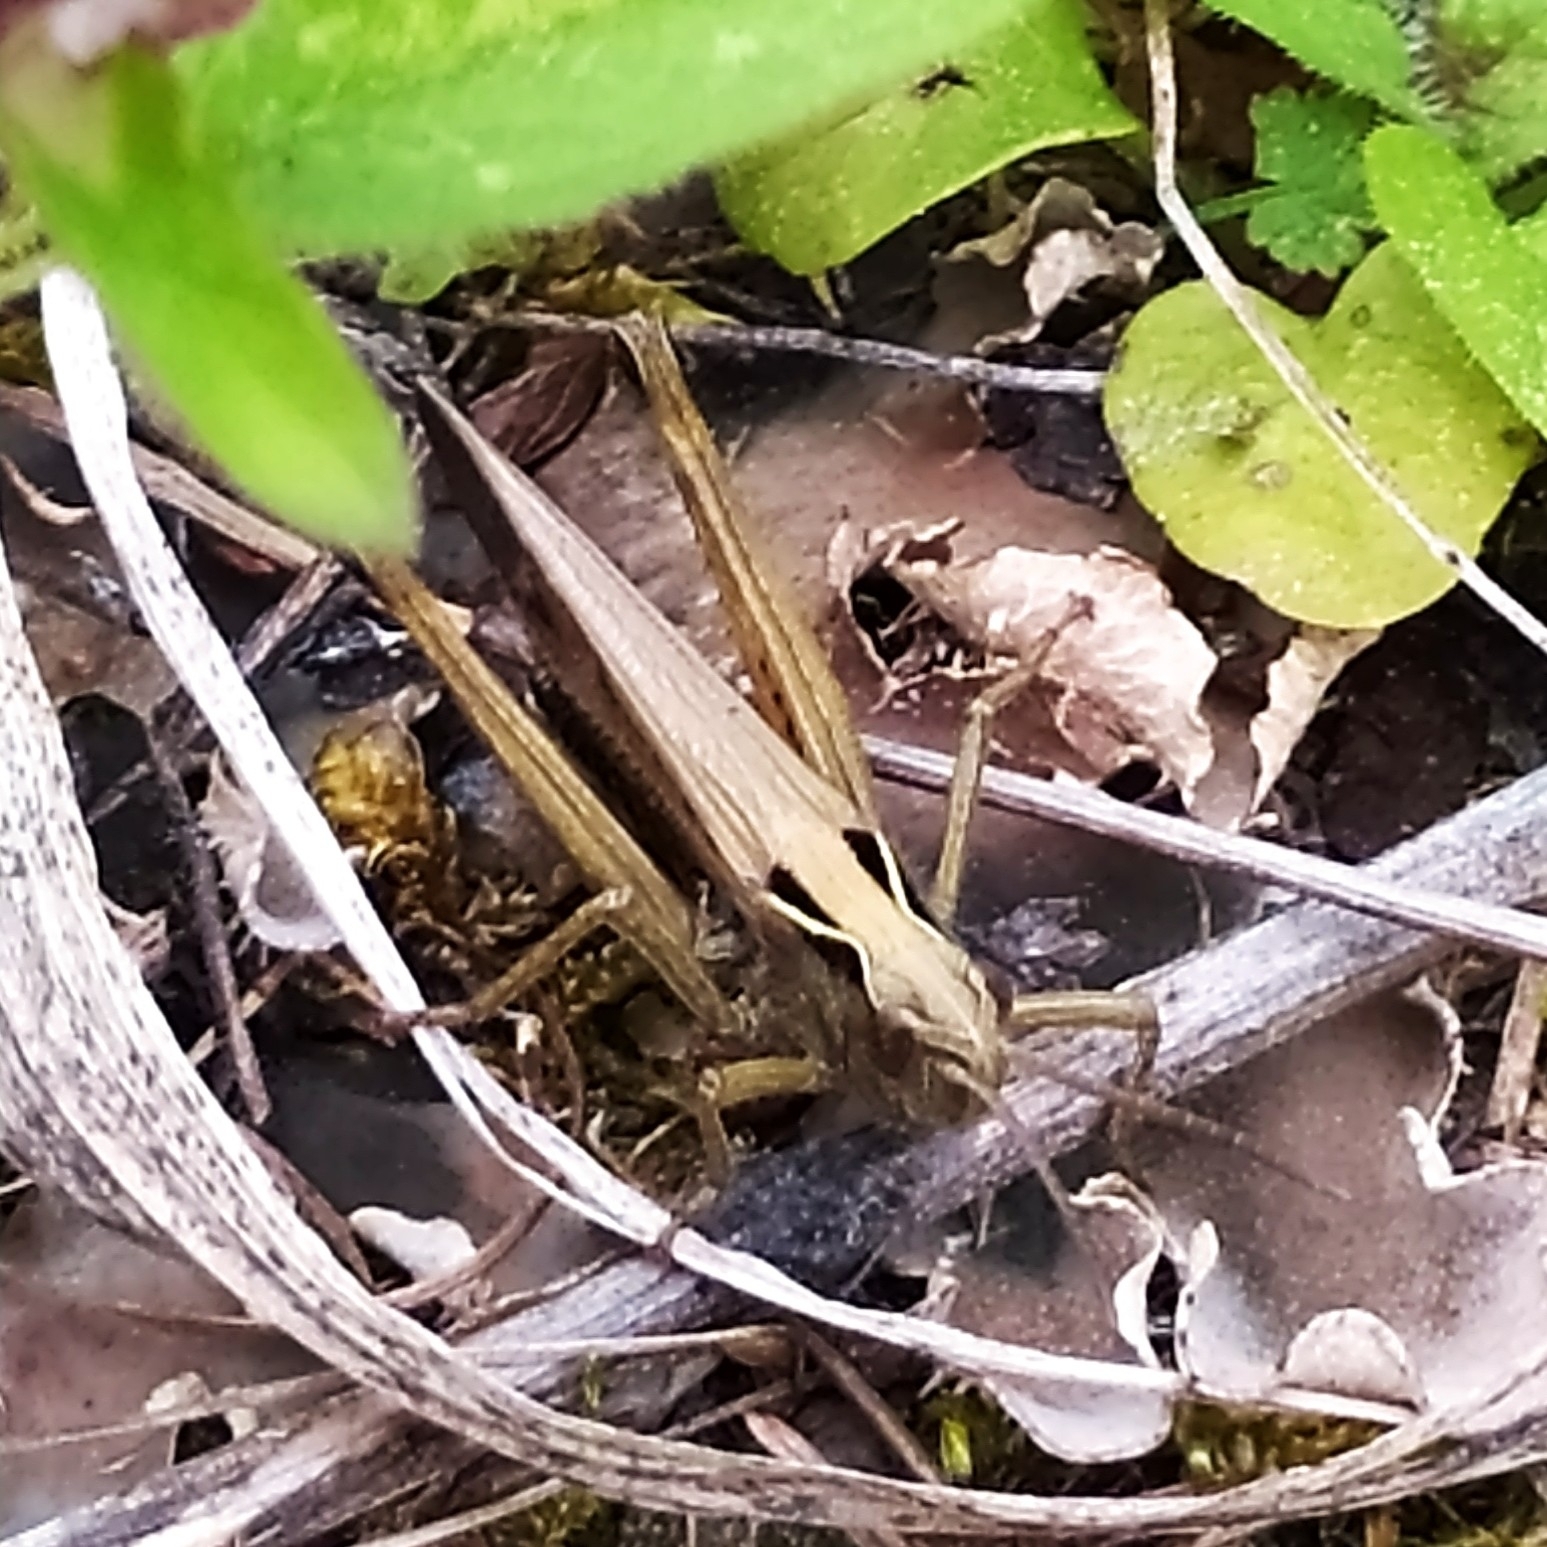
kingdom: Animalia
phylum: Arthropoda
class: Insecta
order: Orthoptera
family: Acrididae
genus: Omocestus
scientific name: Omocestus viridulus
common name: Common green grasshopper
